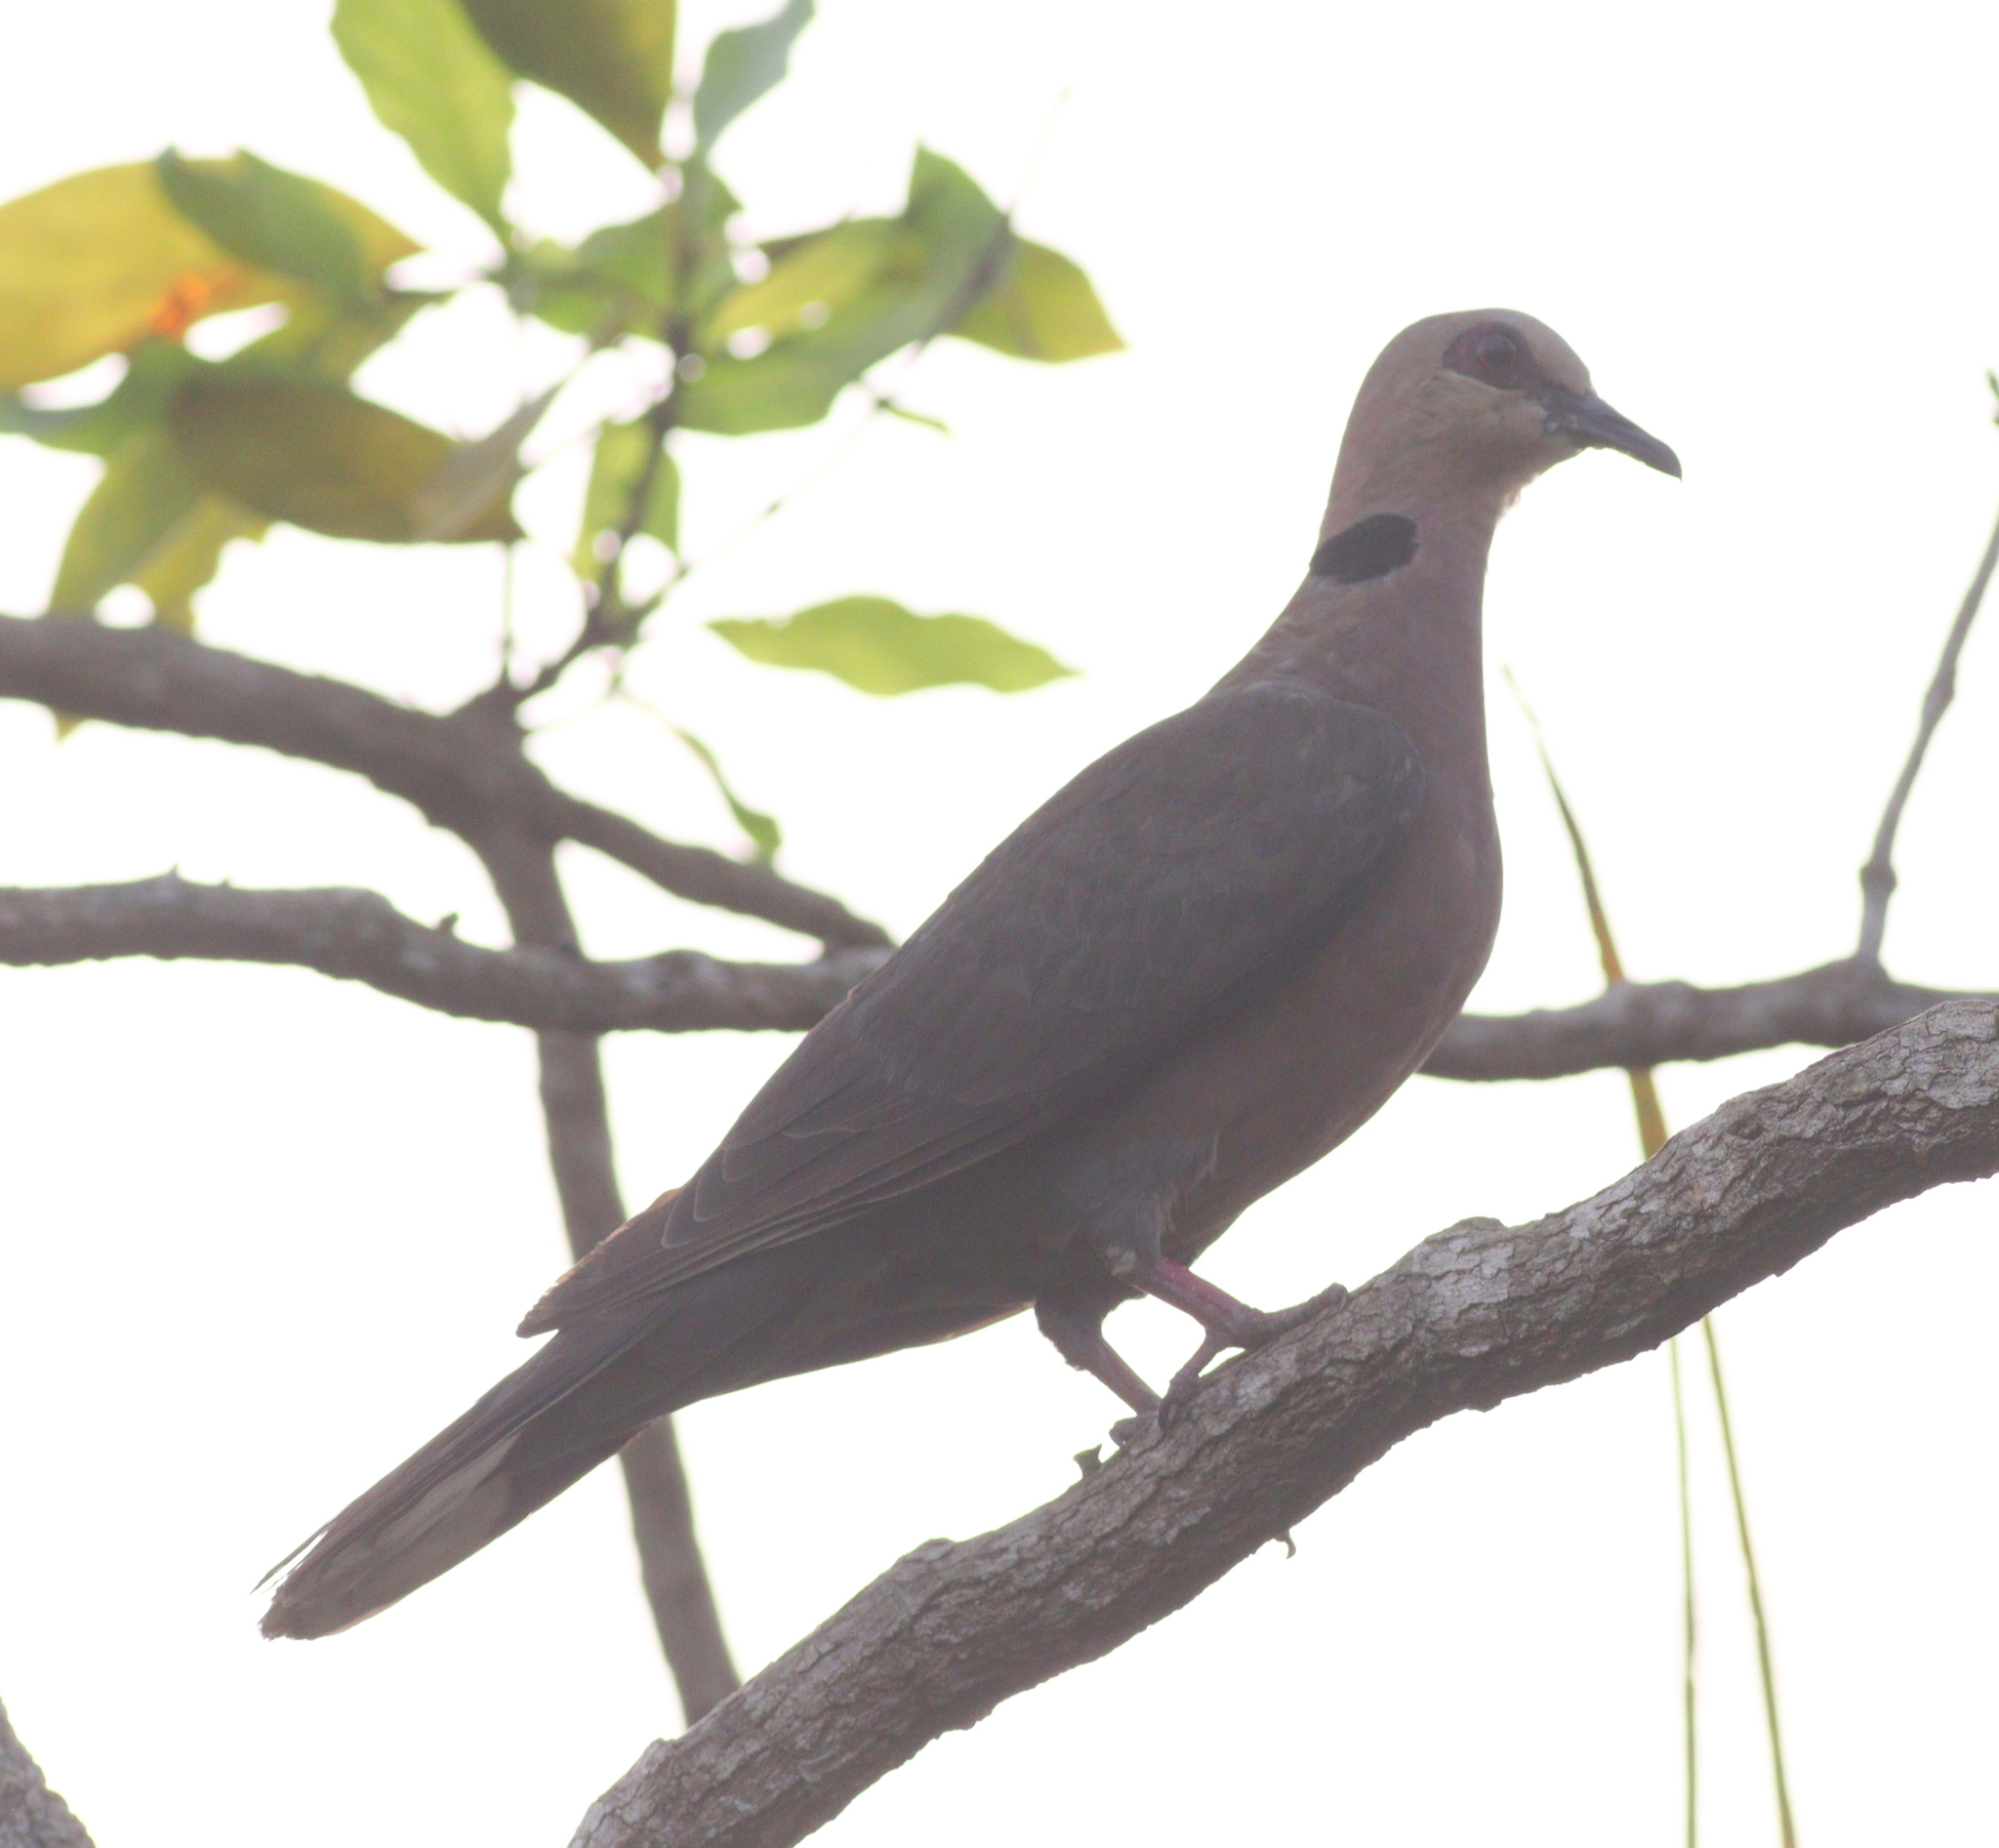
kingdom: Animalia
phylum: Chordata
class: Aves
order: Columbiformes
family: Columbidae
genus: Streptopelia
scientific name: Streptopelia semitorquata
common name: Red-eyed dove
